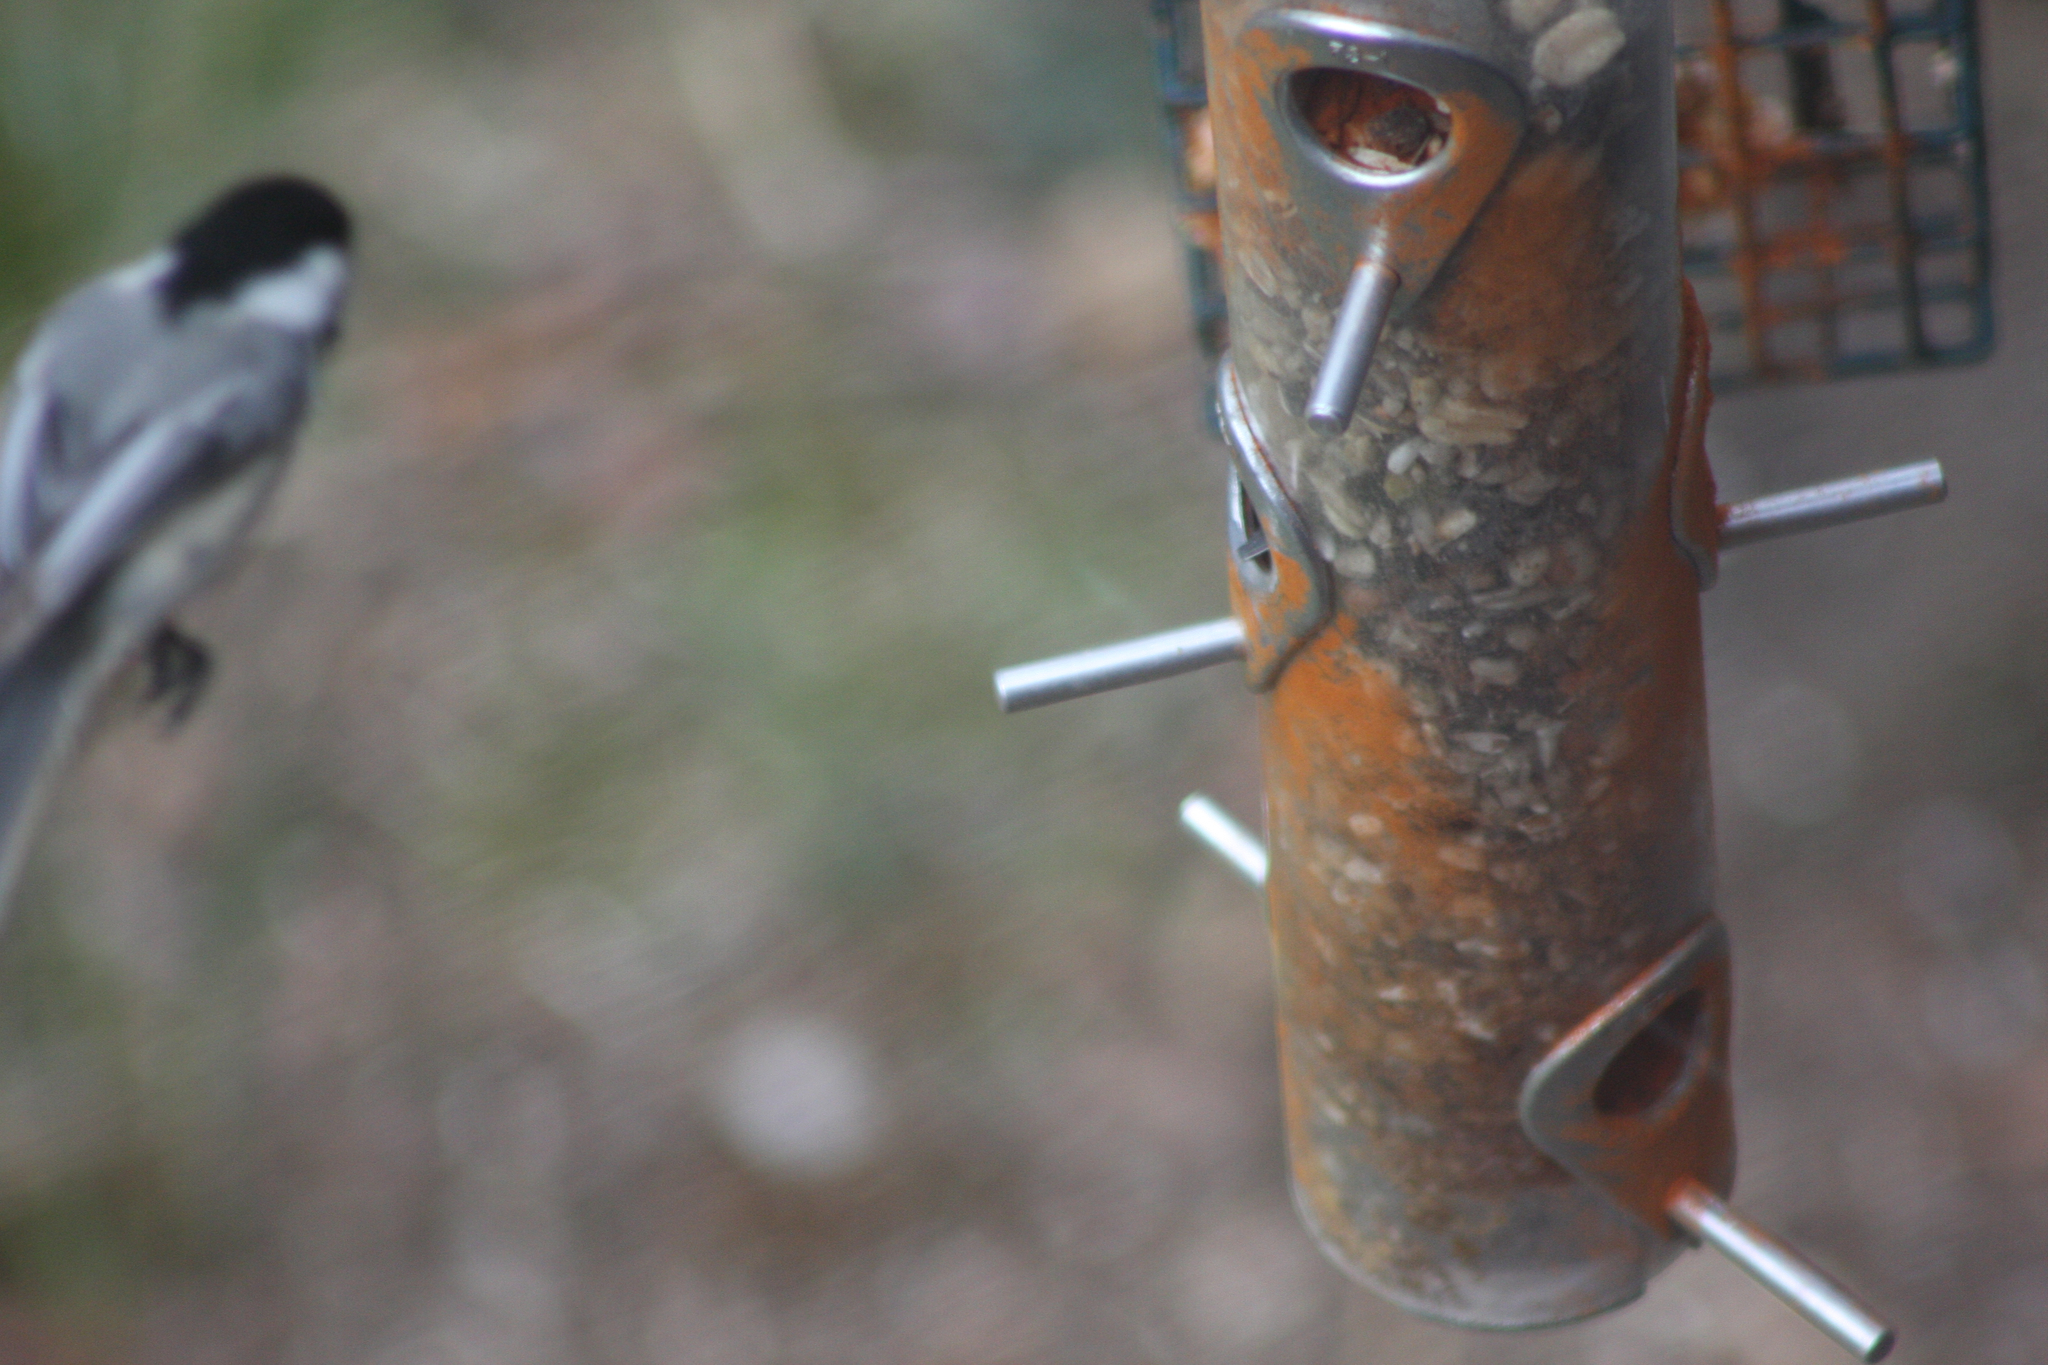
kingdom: Animalia
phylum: Chordata
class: Aves
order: Passeriformes
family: Paridae
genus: Poecile
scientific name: Poecile atricapillus
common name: Black-capped chickadee
